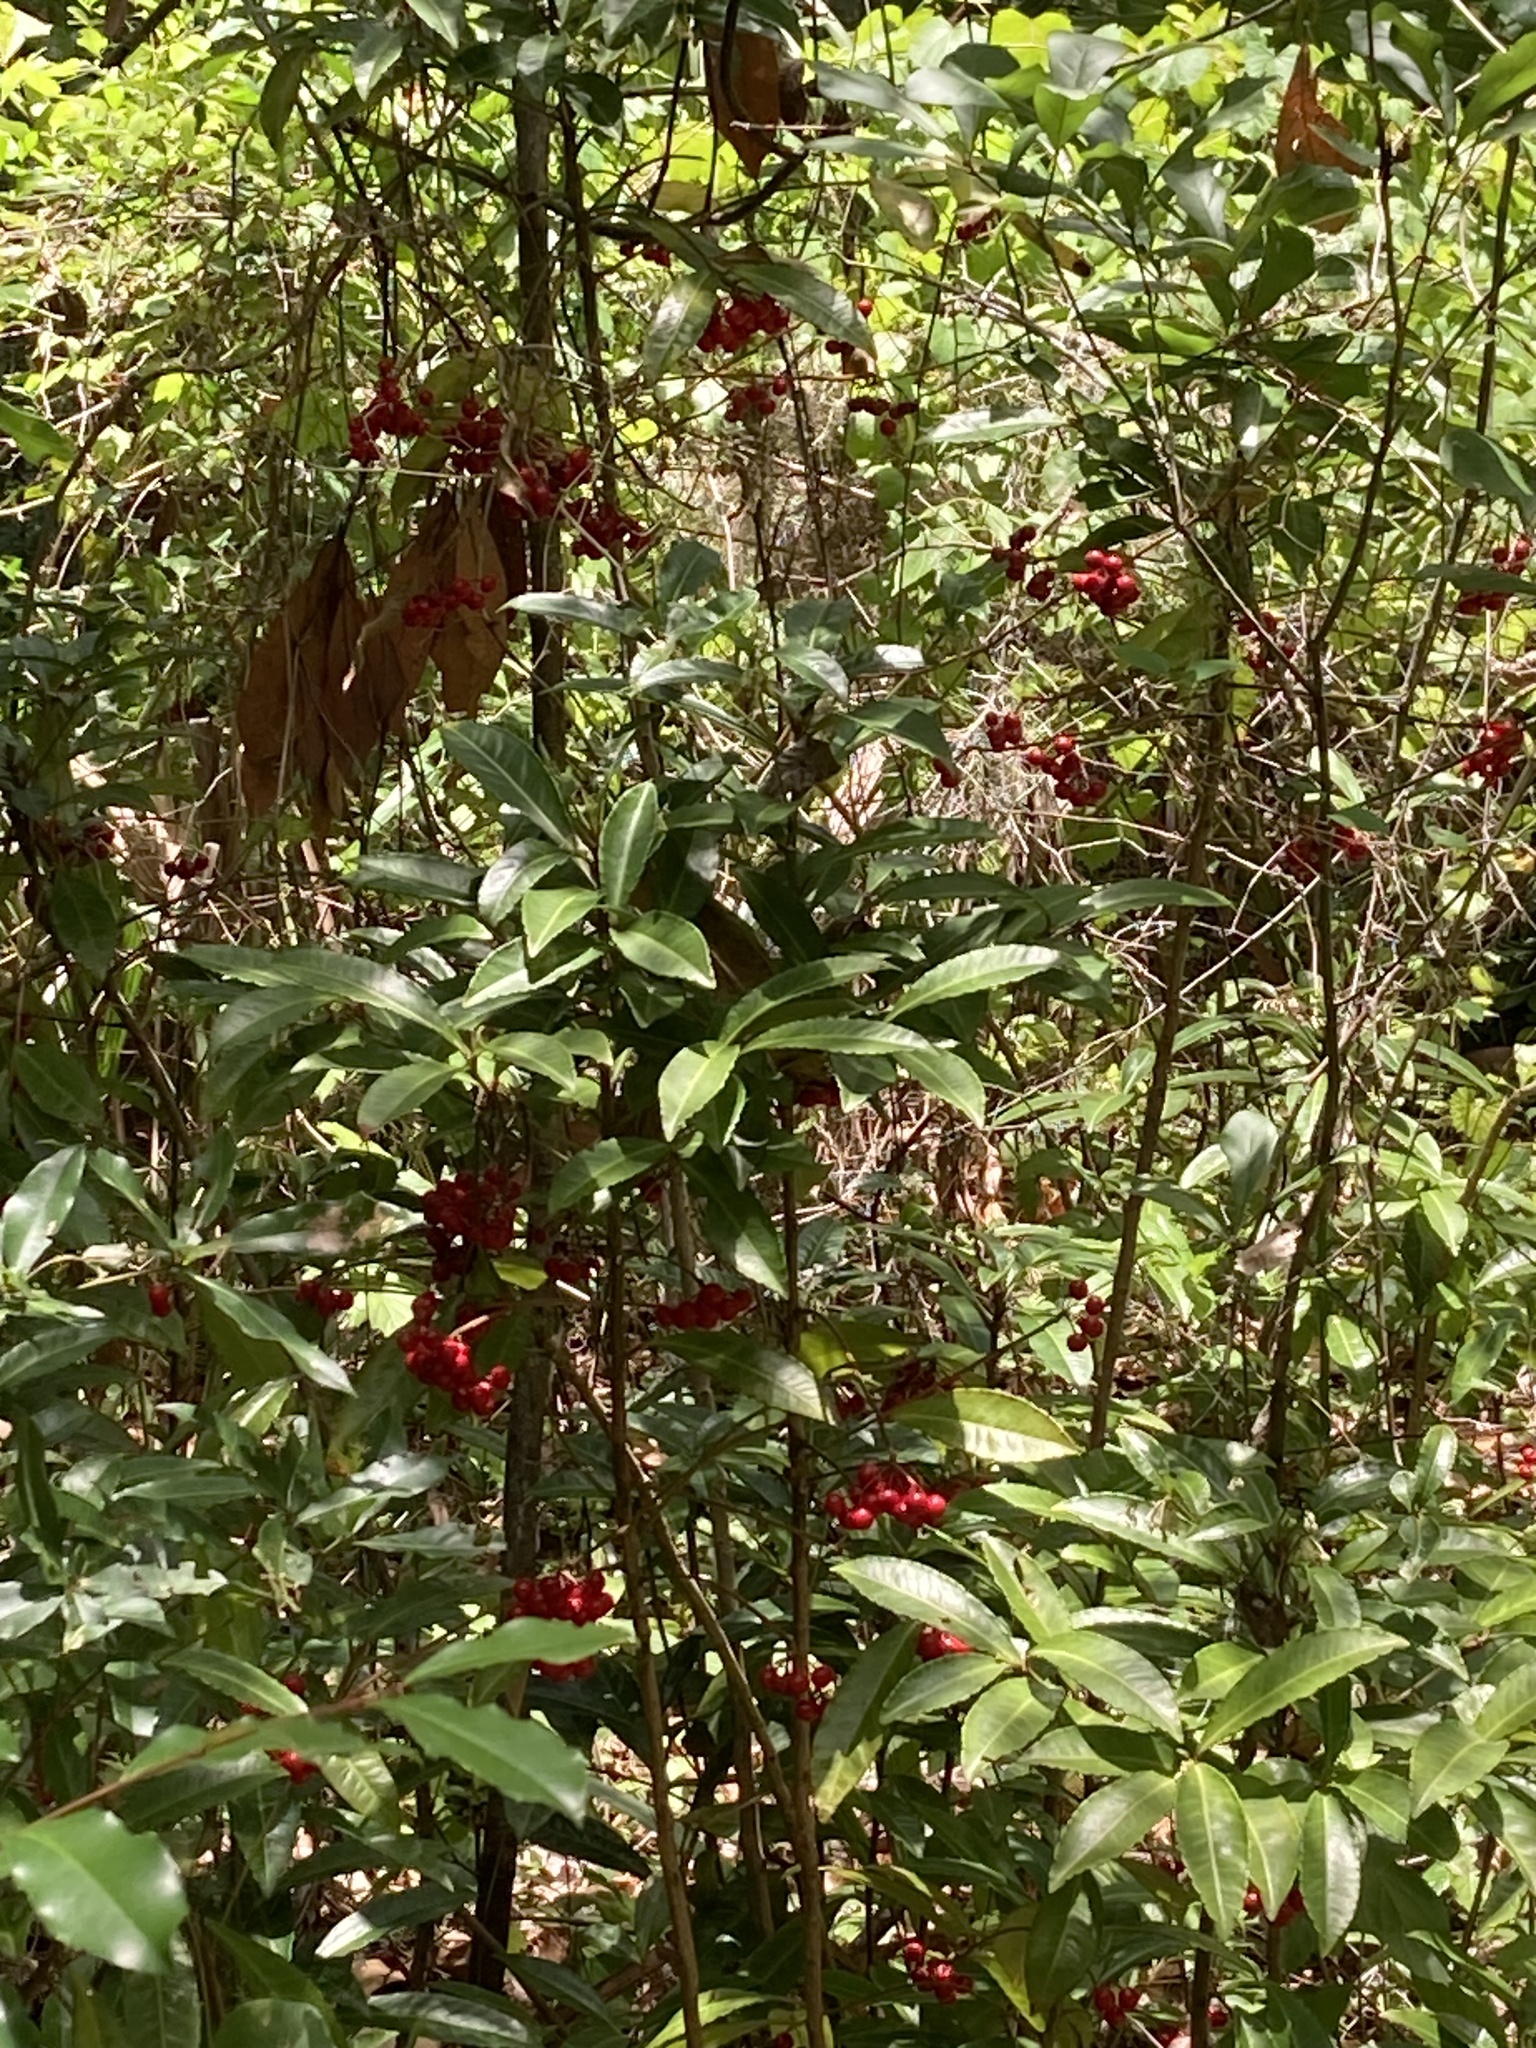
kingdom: Plantae
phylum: Tracheophyta
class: Magnoliopsida
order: Ericales
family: Primulaceae
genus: Ardisia
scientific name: Ardisia crenata
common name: Hen's eyes
